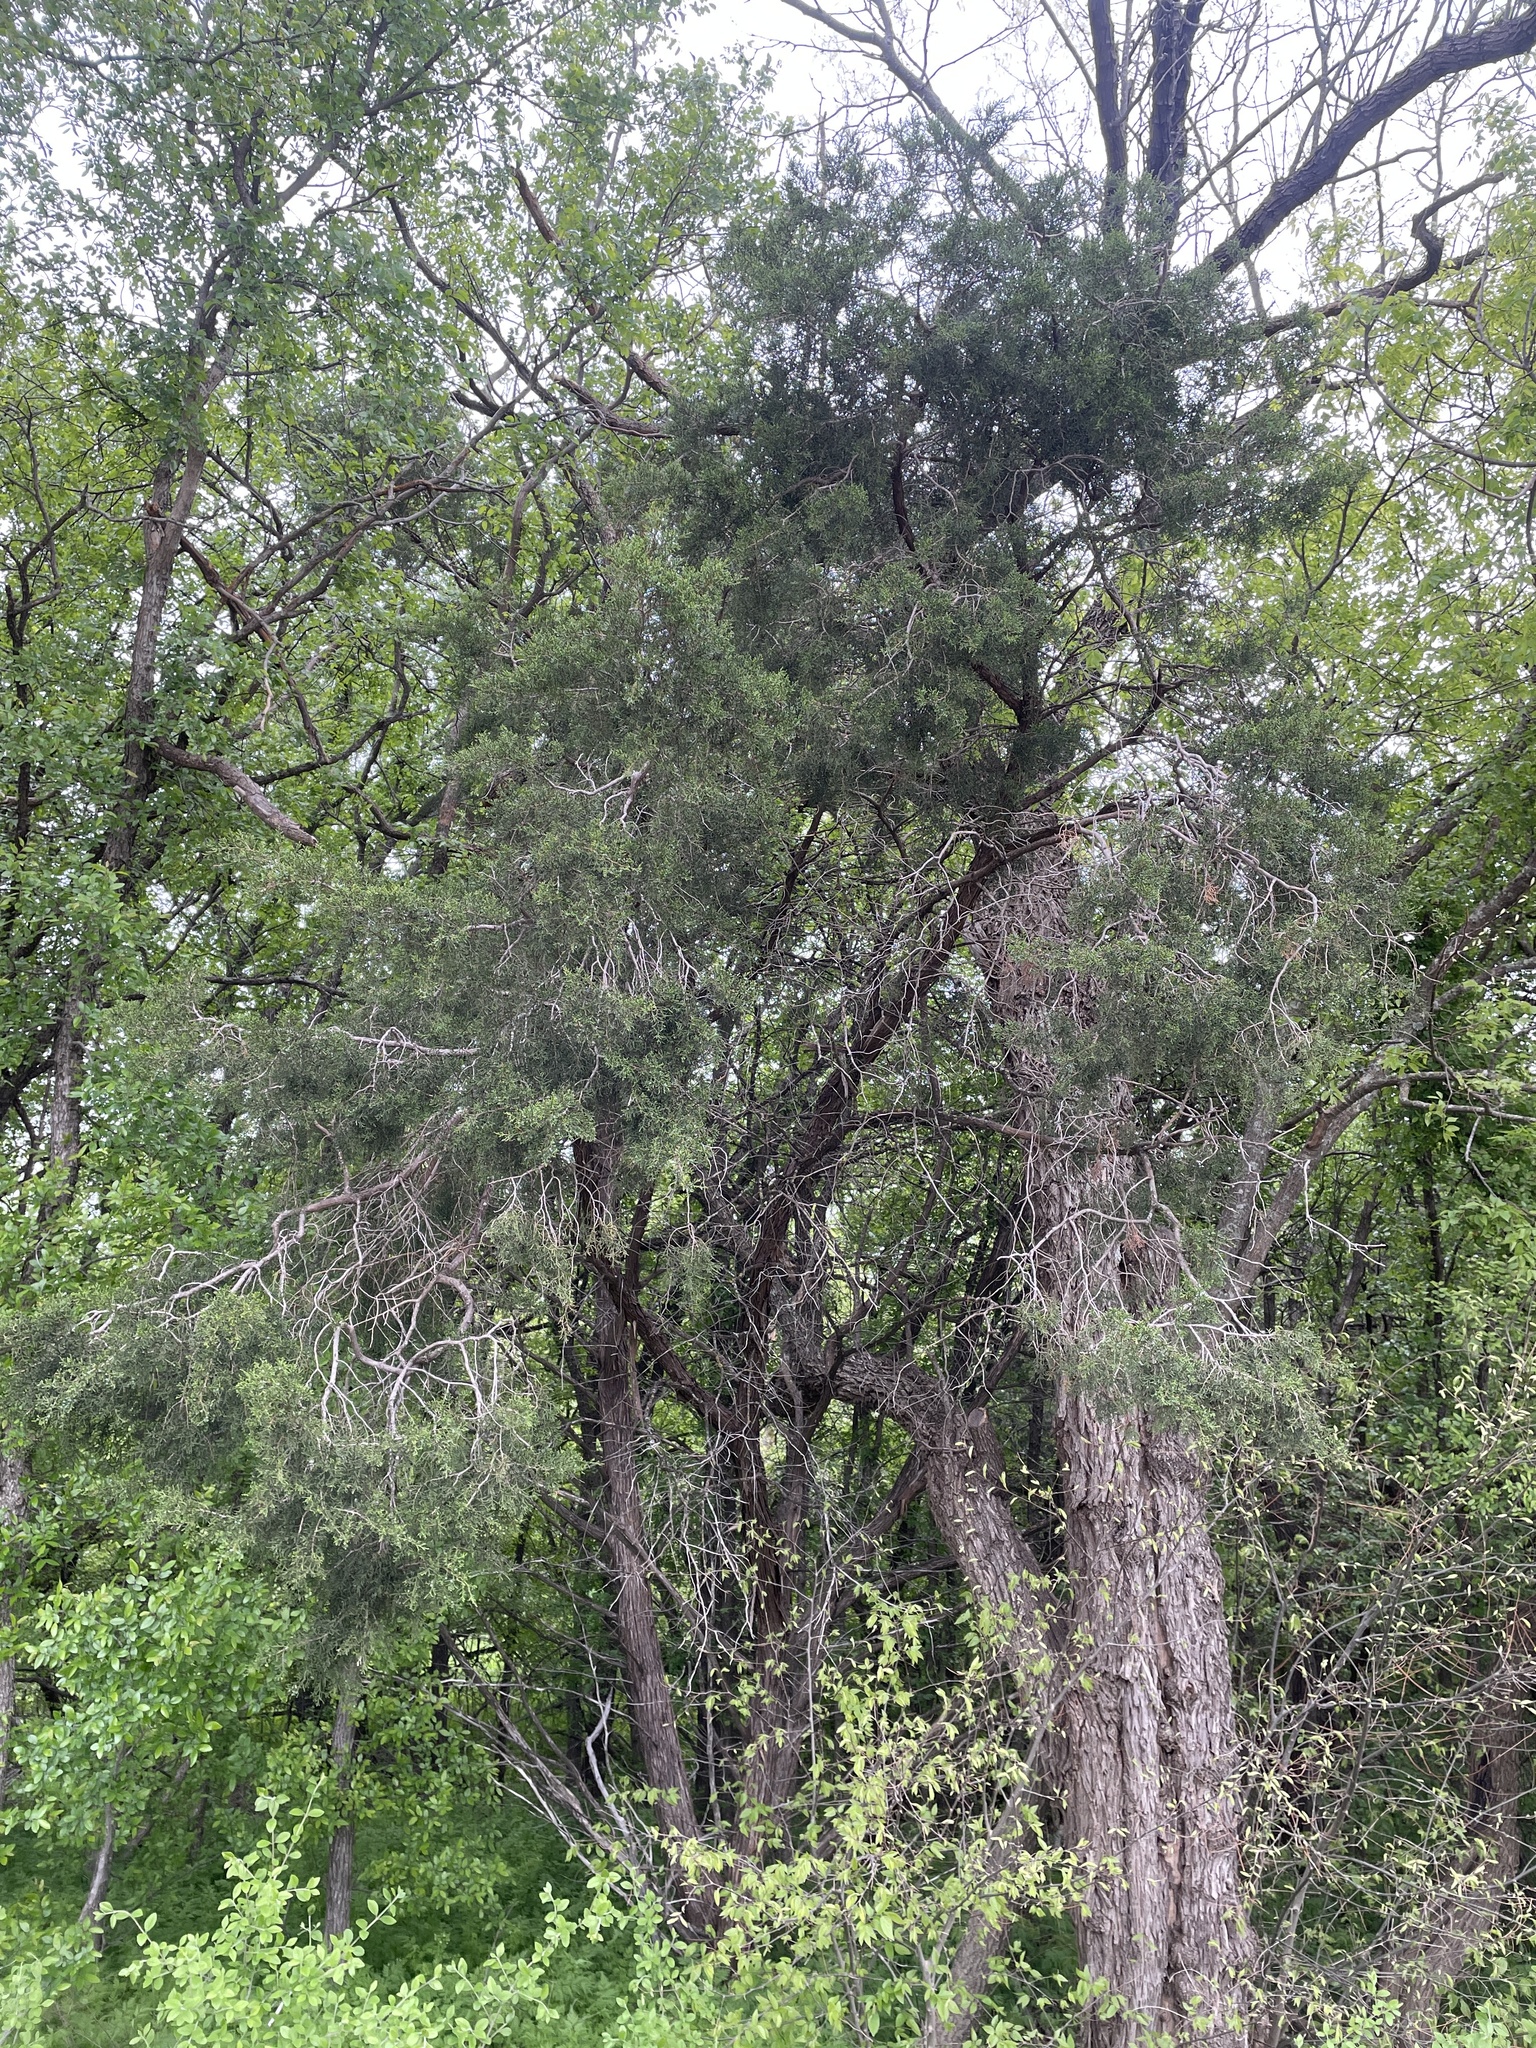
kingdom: Plantae
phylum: Tracheophyta
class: Pinopsida
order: Pinales
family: Cupressaceae
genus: Juniperus
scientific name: Juniperus virginiana
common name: Red juniper
